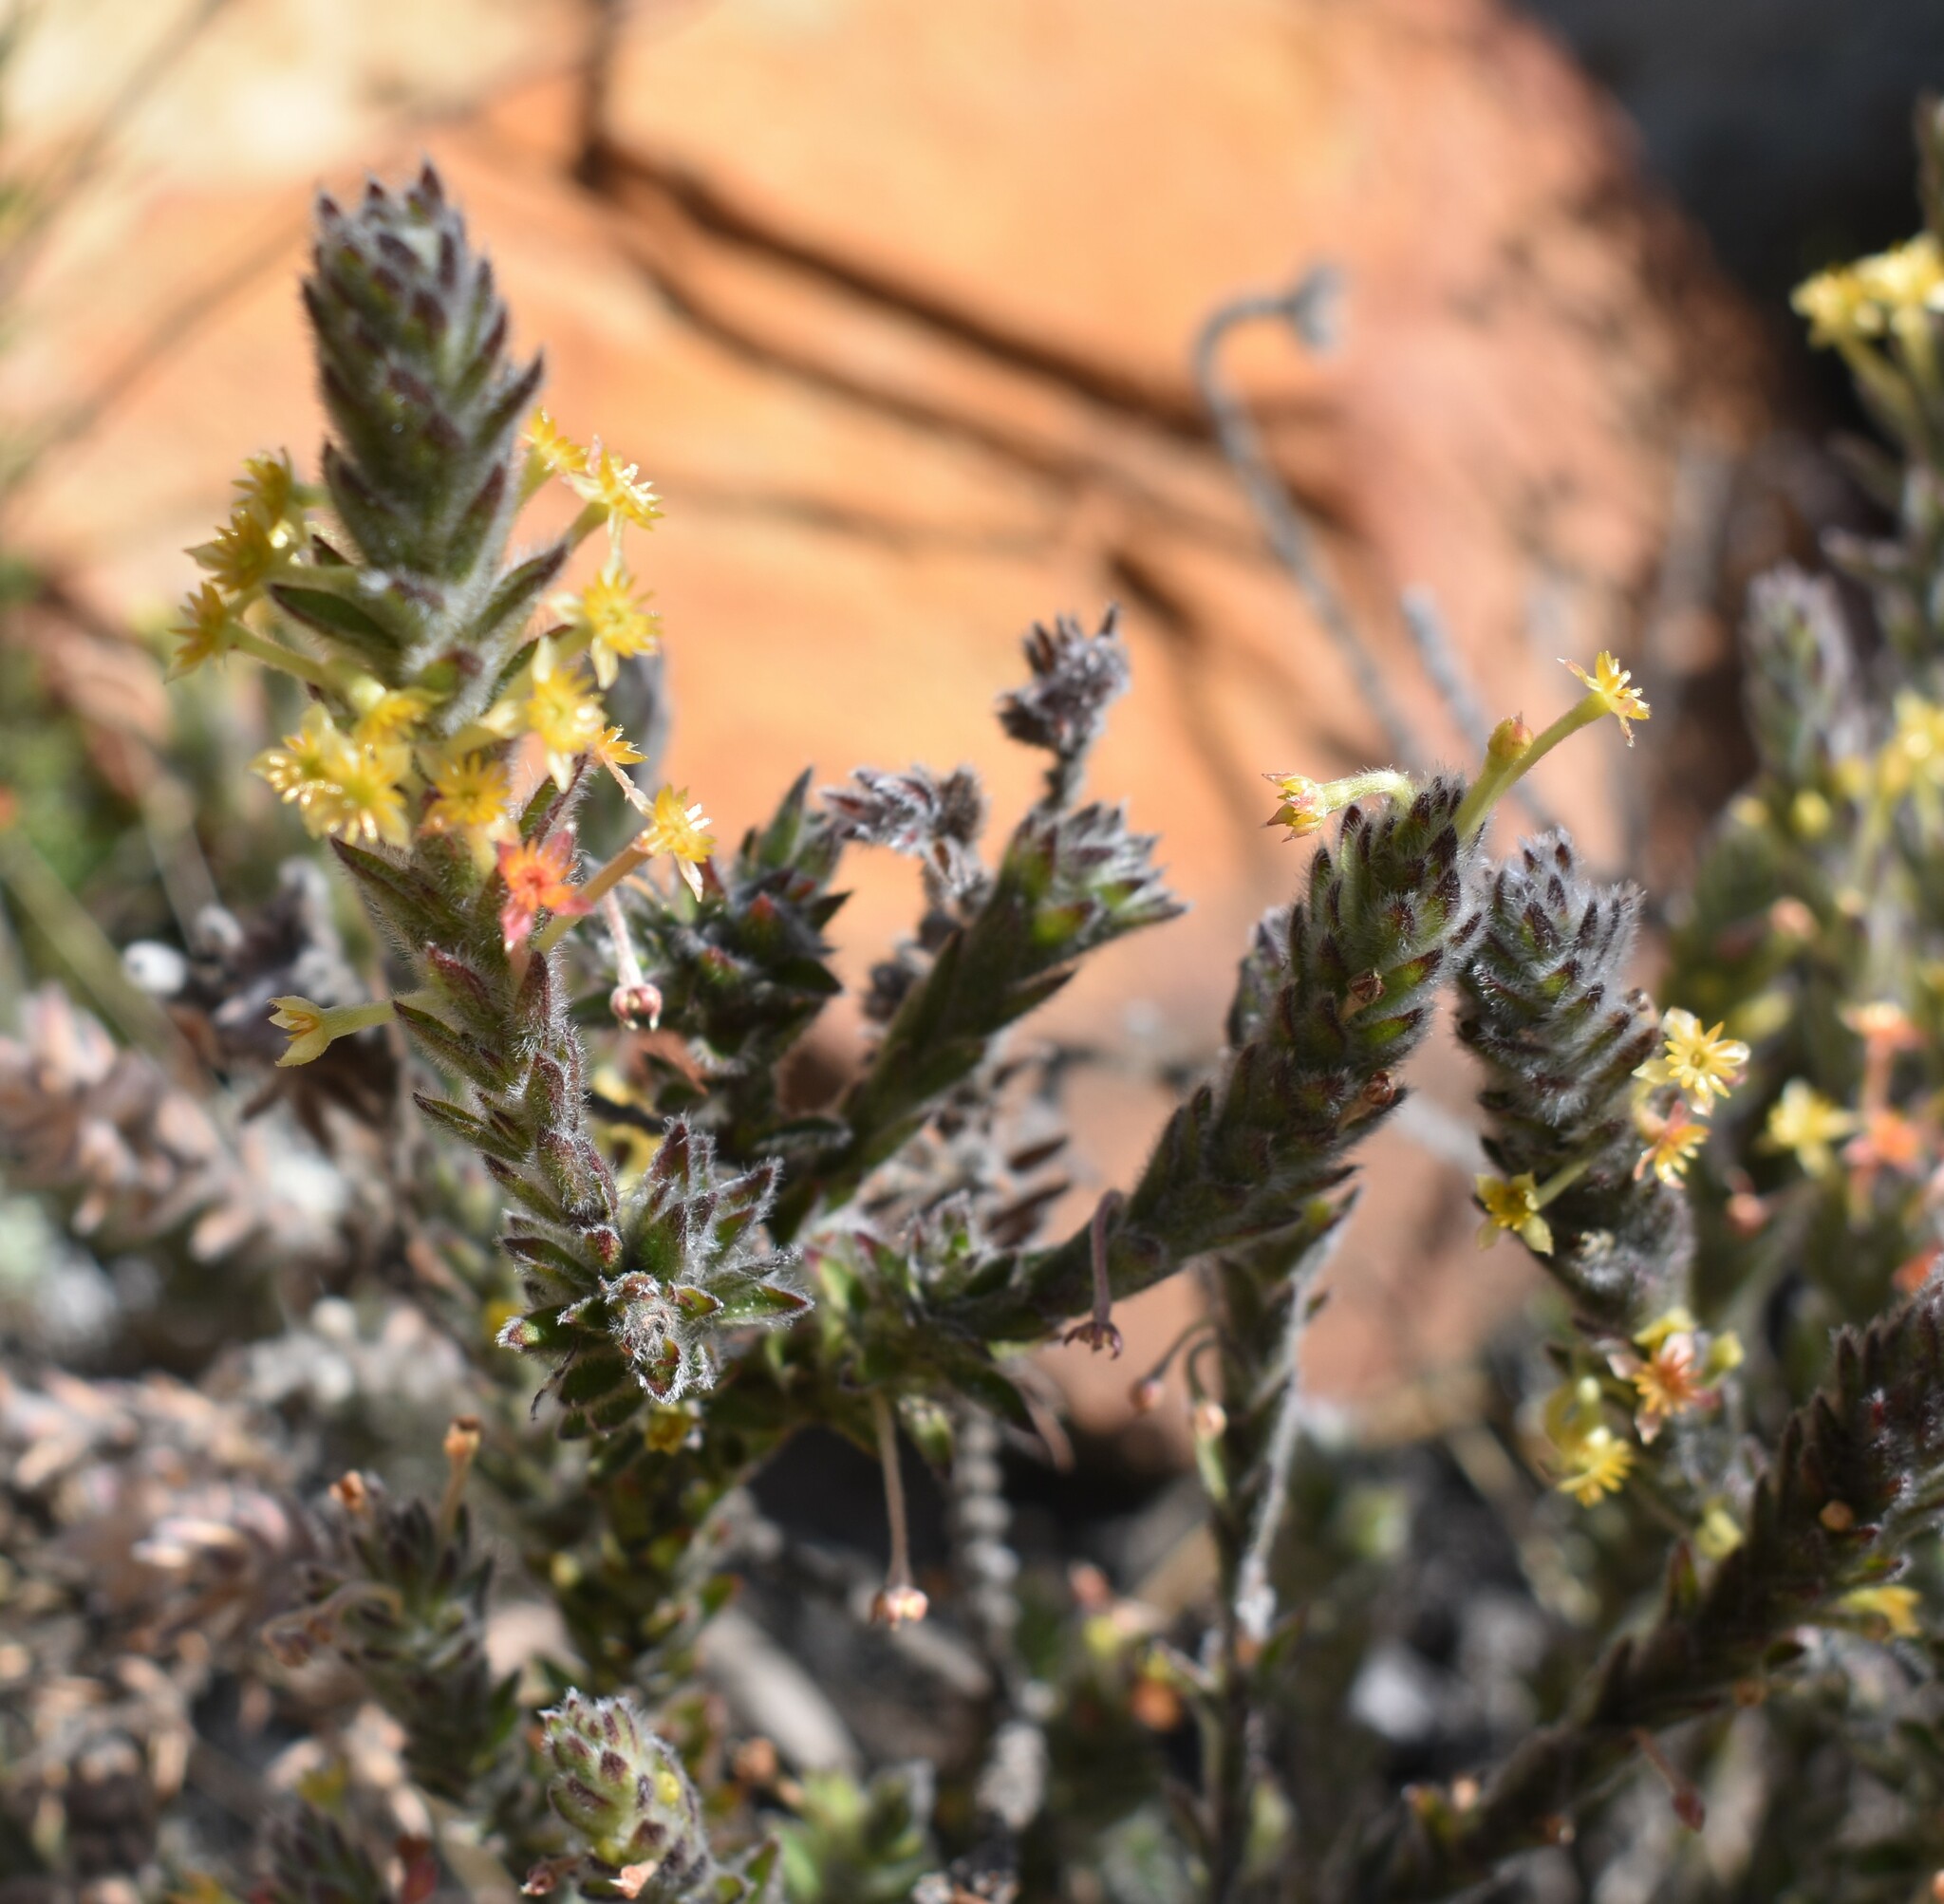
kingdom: Plantae
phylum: Tracheophyta
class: Magnoliopsida
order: Malvales
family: Thymelaeaceae
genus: Struthiola
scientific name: Struthiola tomentosa
